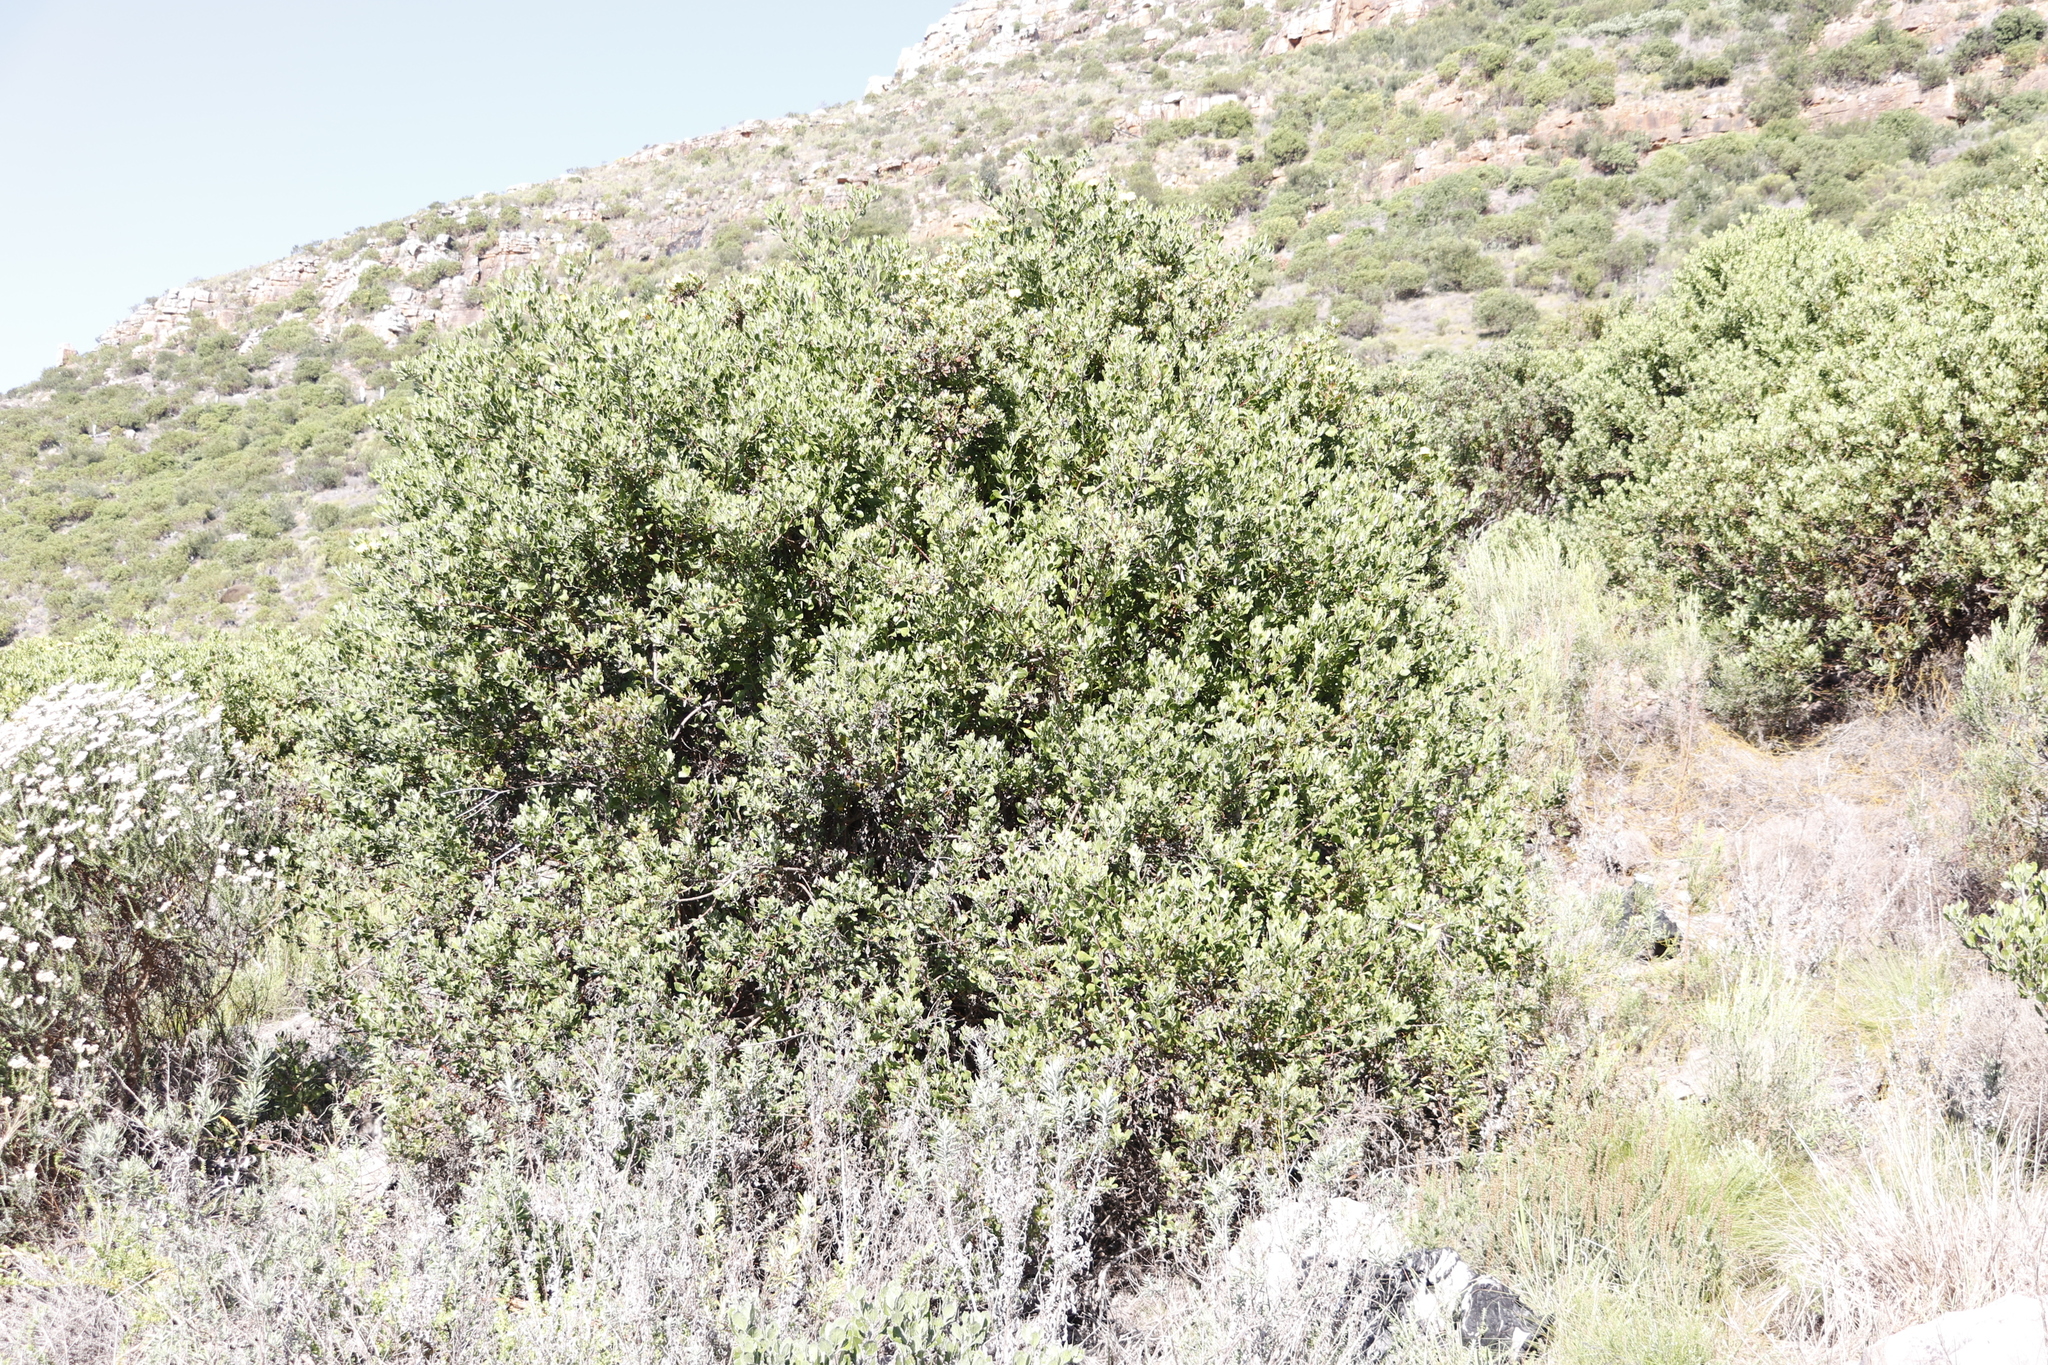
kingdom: Plantae
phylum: Tracheophyta
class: Magnoliopsida
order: Asterales
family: Asteraceae
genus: Osteospermum
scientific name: Osteospermum moniliferum
